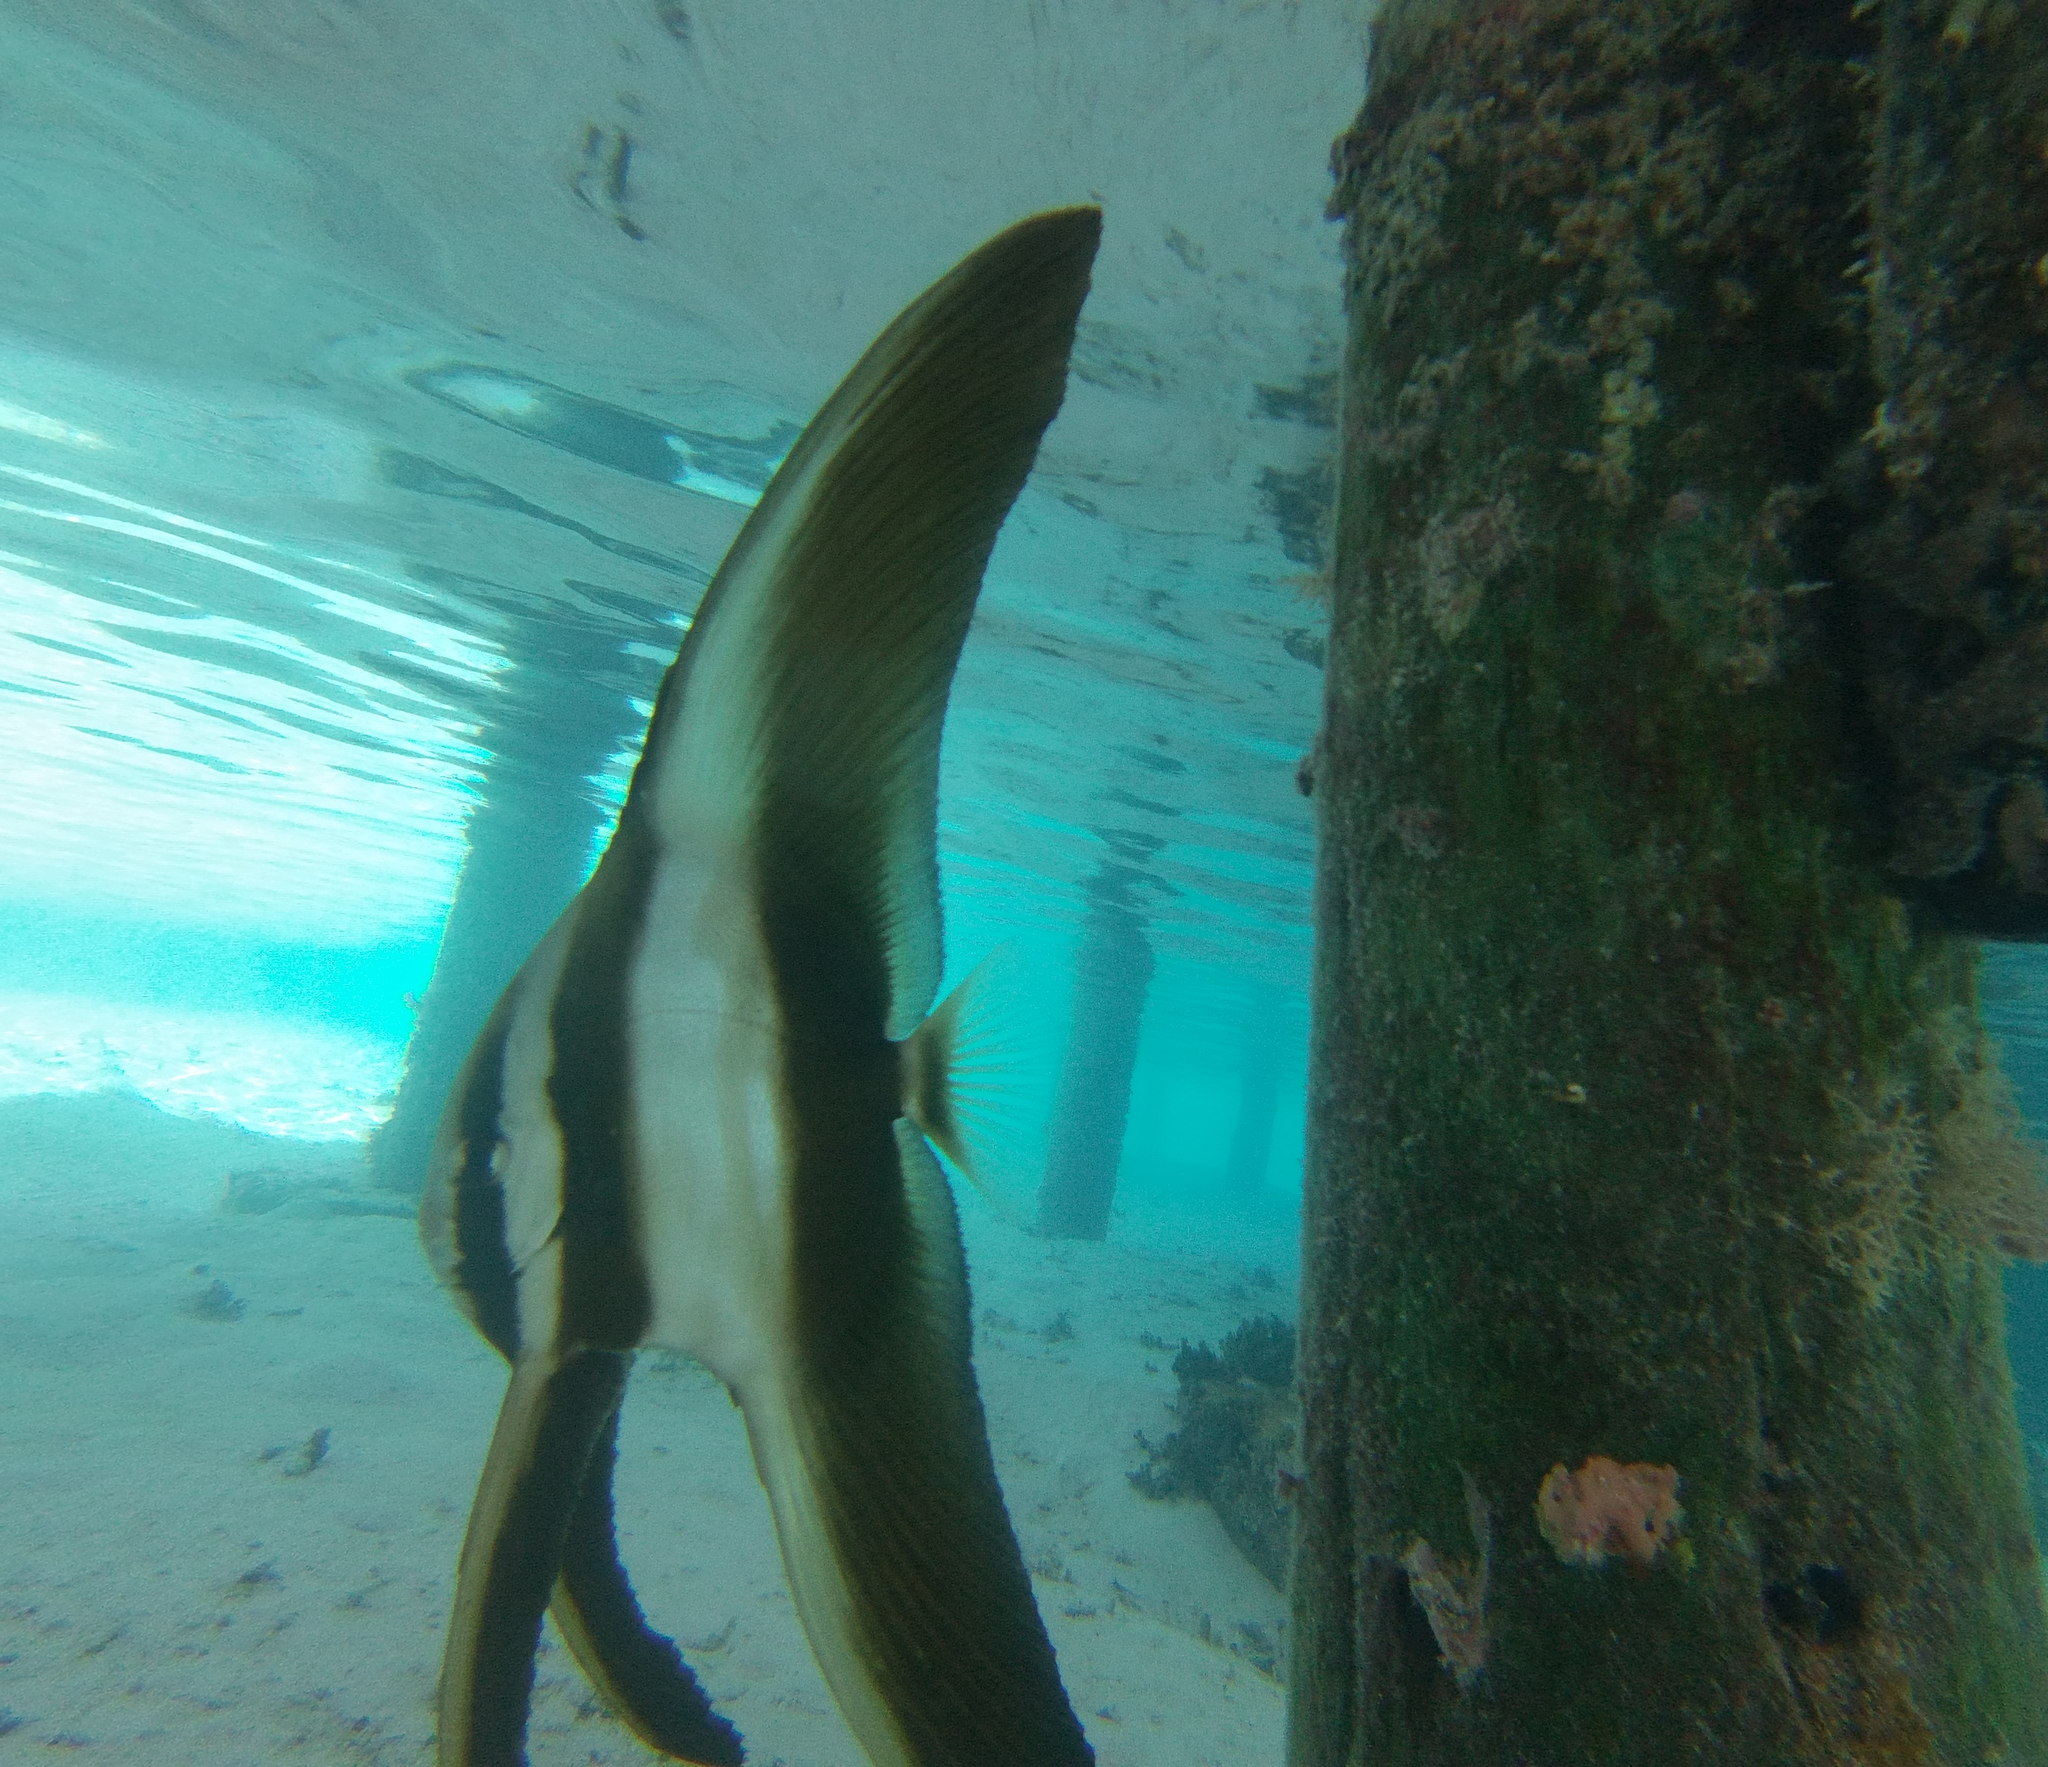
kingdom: Animalia
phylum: Chordata
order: Perciformes
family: Ephippidae
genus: Platax
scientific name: Platax teira
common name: Longfin baitfish
